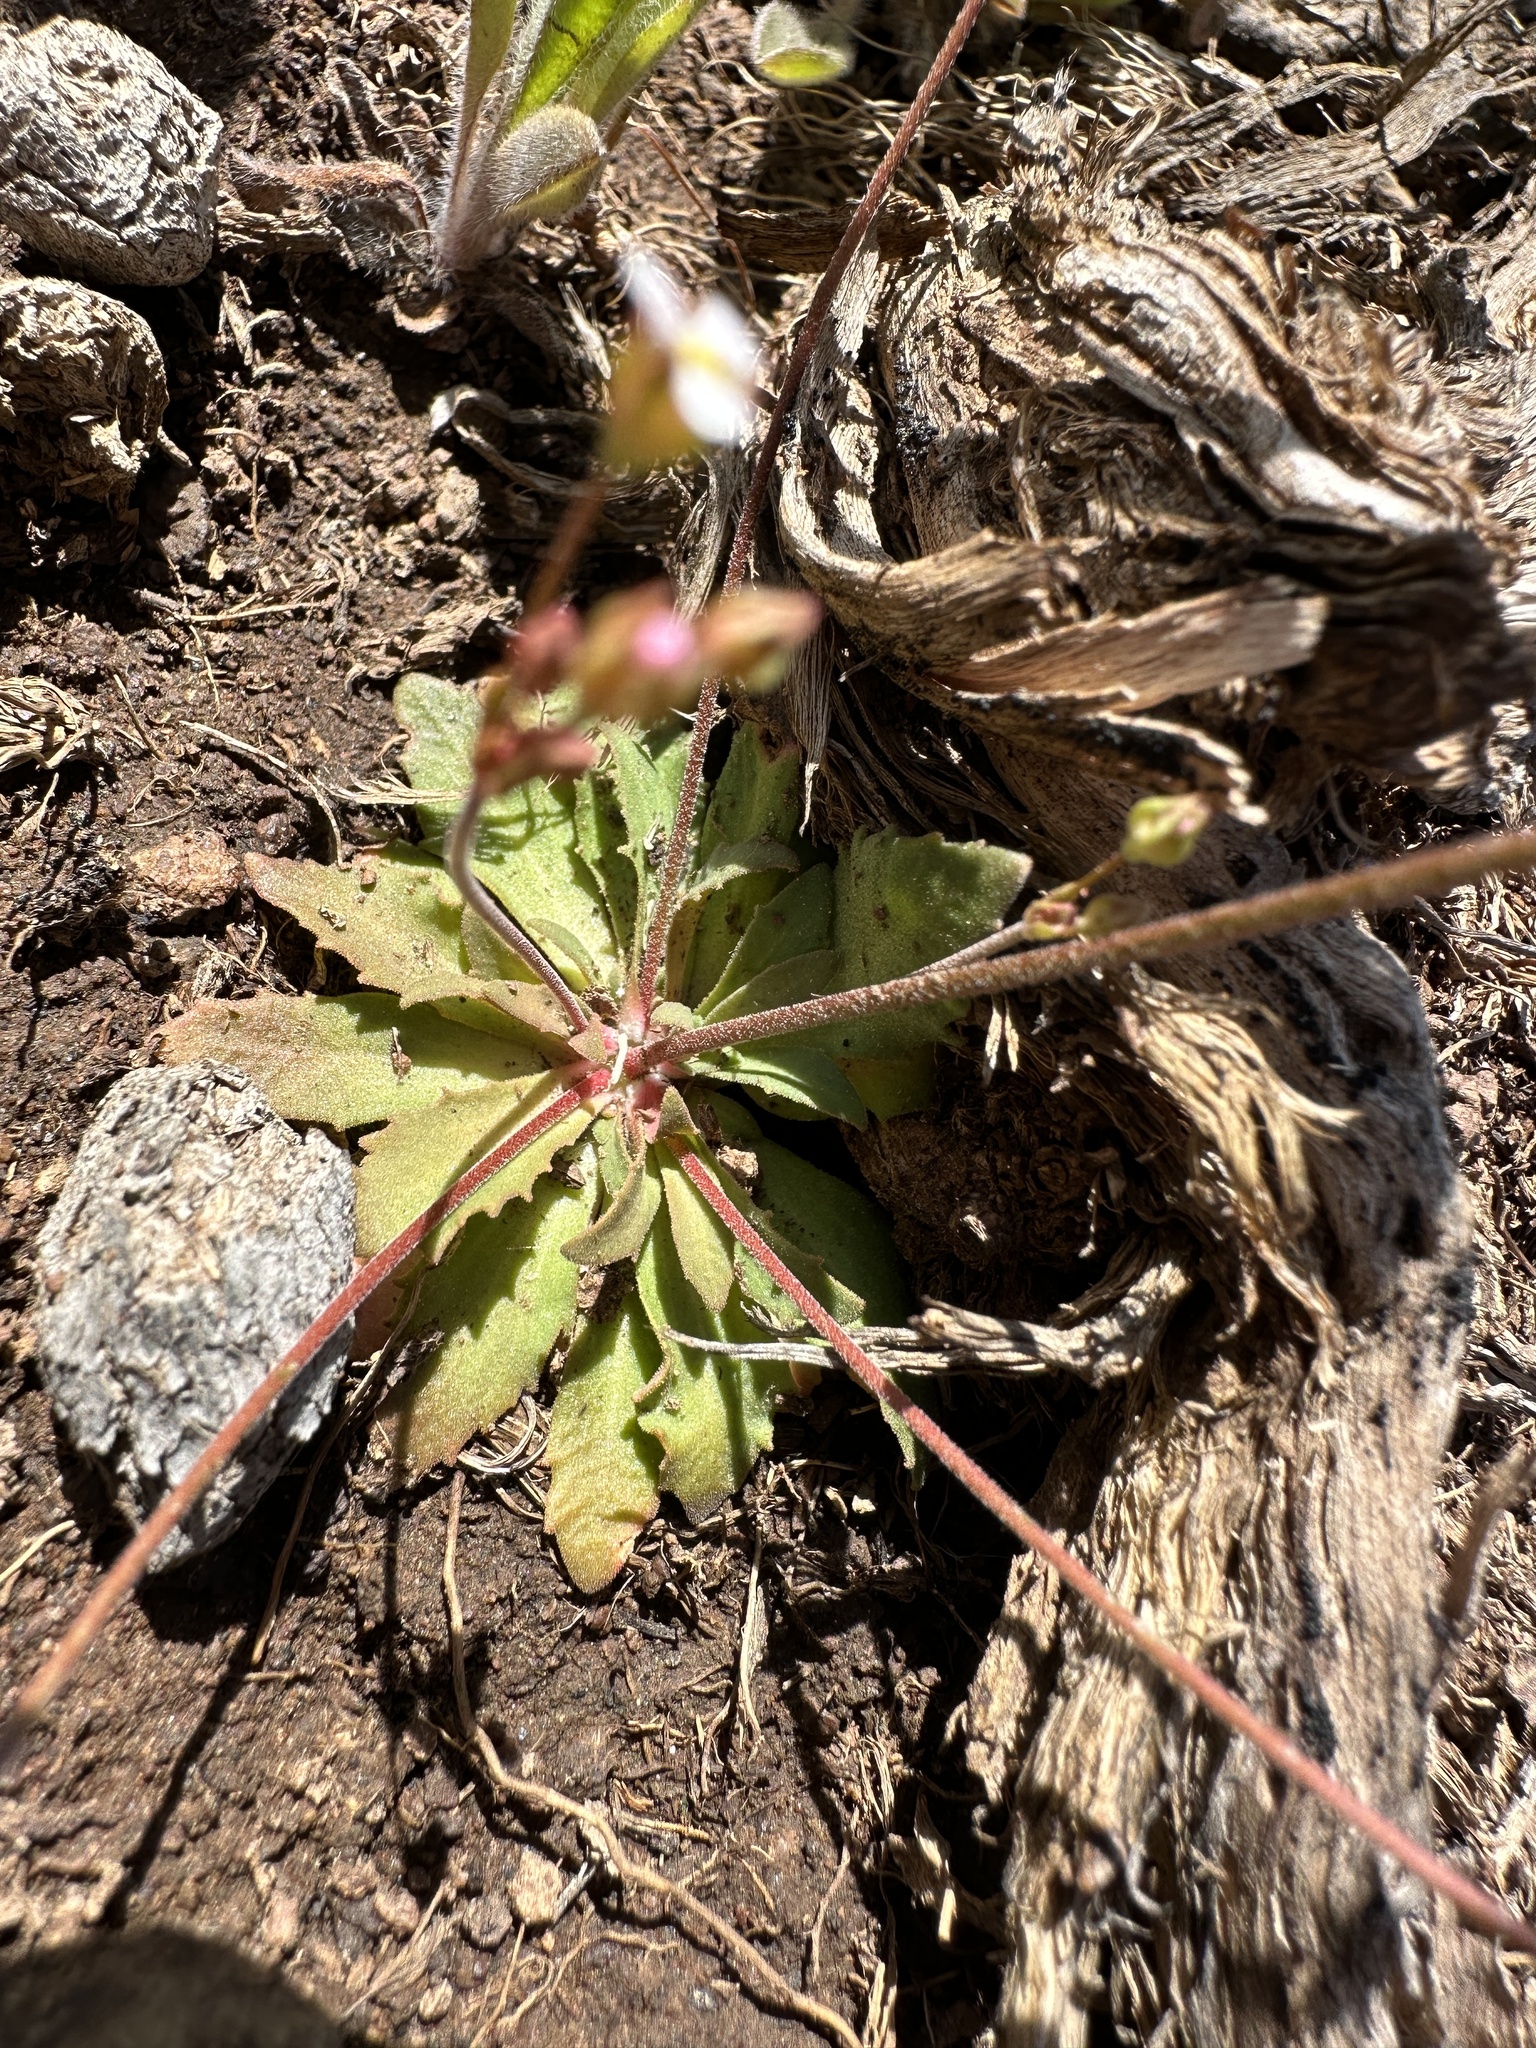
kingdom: Plantae
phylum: Tracheophyta
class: Magnoliopsida
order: Ericales
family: Primulaceae
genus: Androsace
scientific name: Androsace septentrionalis
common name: Hairy northern fairy-candelabra
